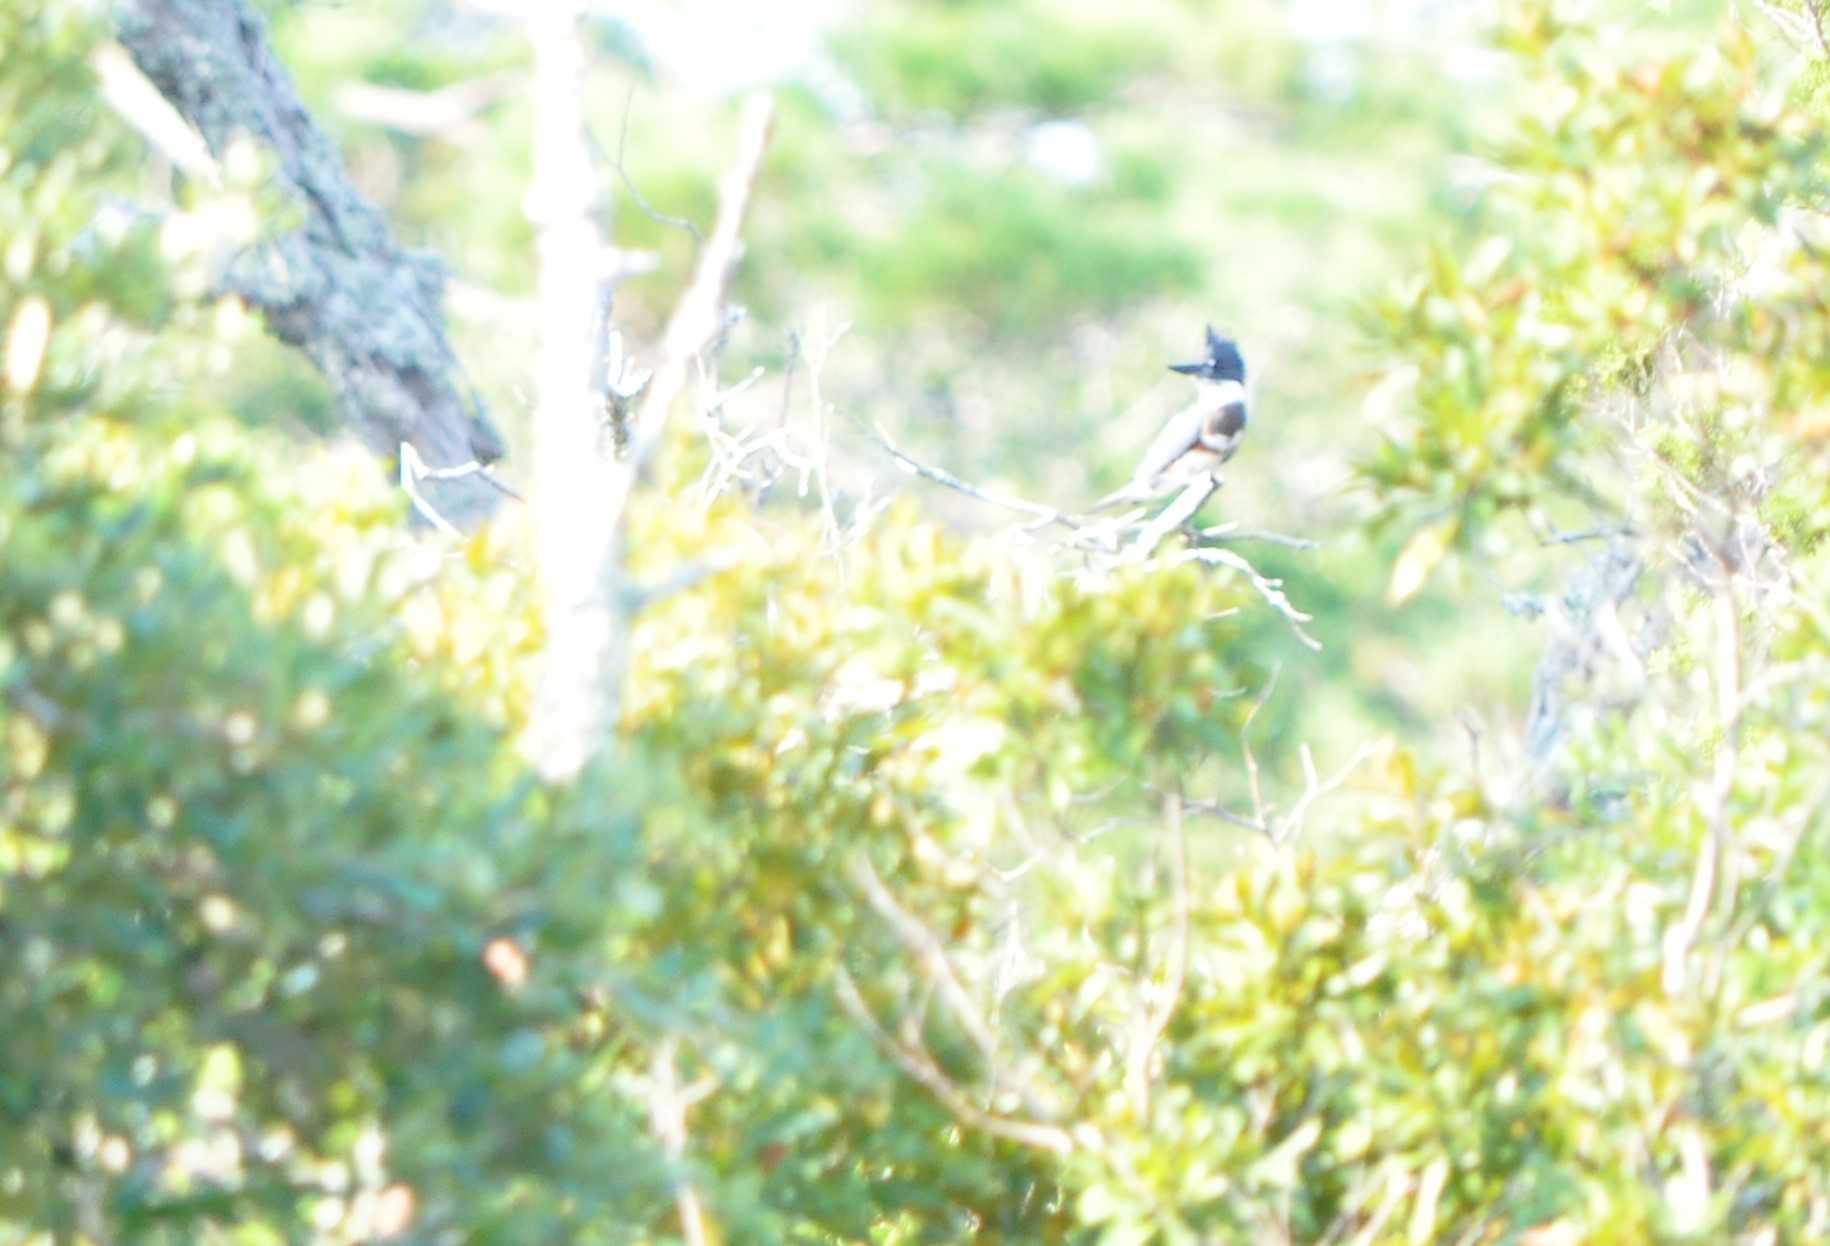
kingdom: Animalia
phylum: Chordata
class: Aves
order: Coraciiformes
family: Alcedinidae
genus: Megaceryle
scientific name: Megaceryle alcyon
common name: Belted kingfisher
